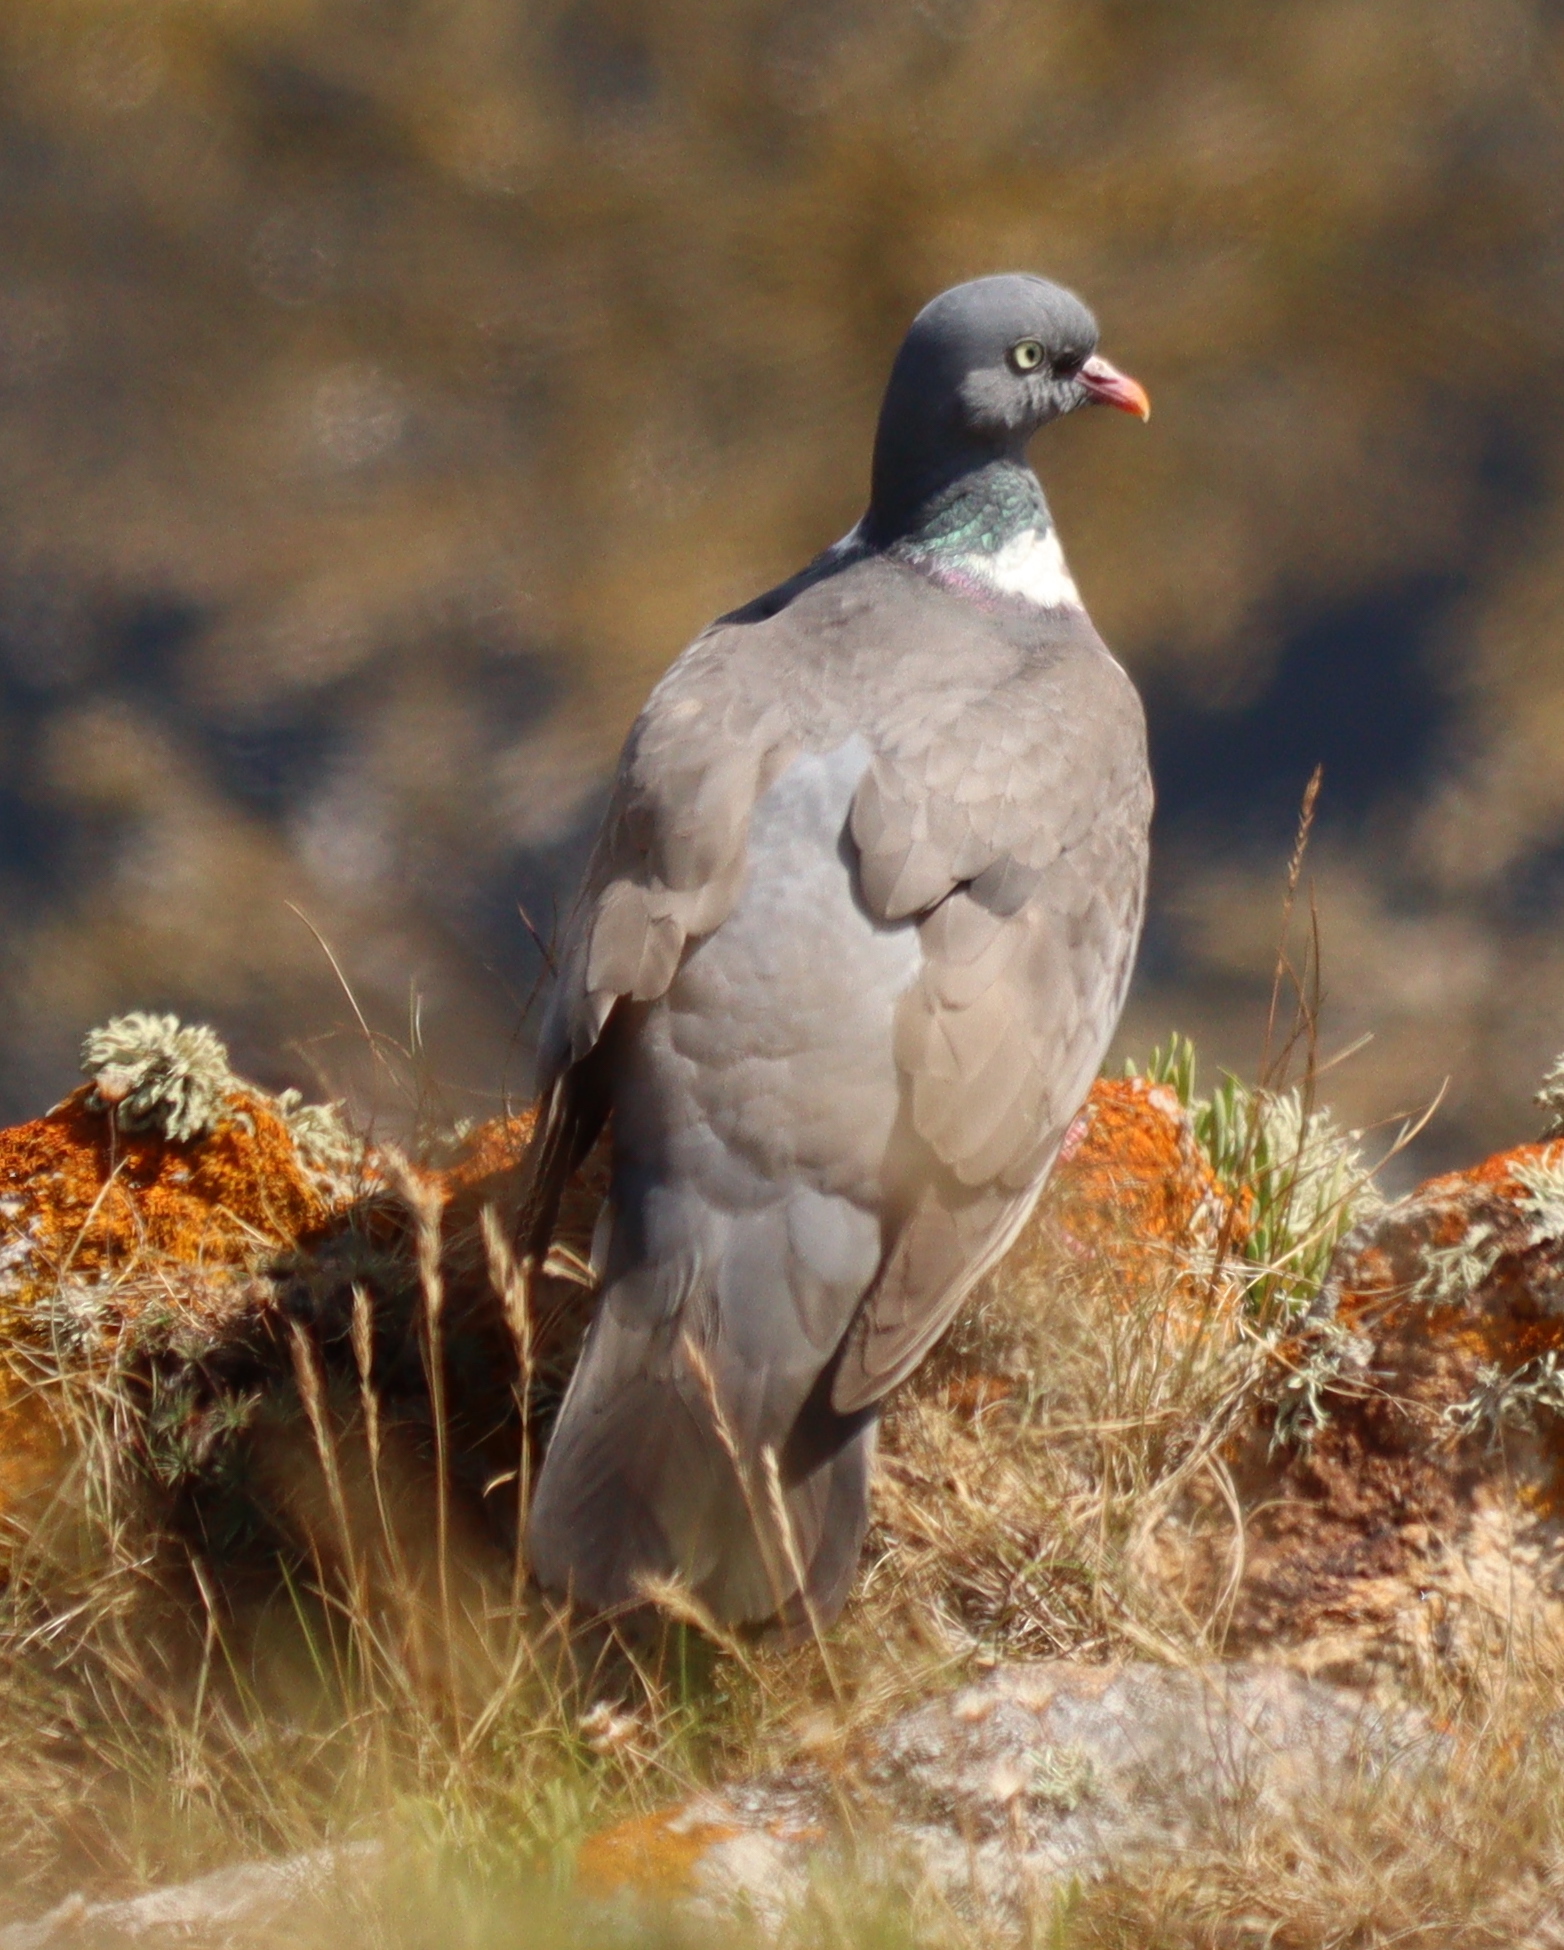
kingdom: Animalia
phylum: Chordata
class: Aves
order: Columbiformes
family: Columbidae
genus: Columba
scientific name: Columba palumbus
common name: Common wood pigeon
